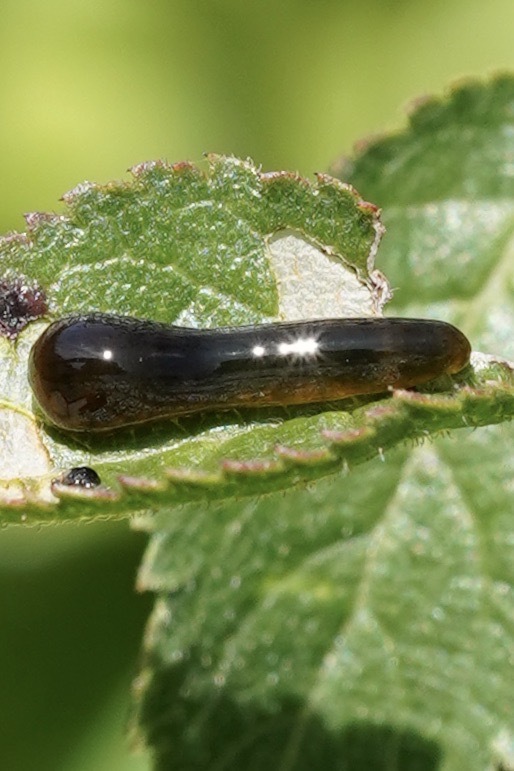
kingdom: Animalia
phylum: Arthropoda
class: Insecta
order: Hymenoptera
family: Tenthredinidae
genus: Caliroa
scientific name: Caliroa cerasi
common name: Pear sawfly
